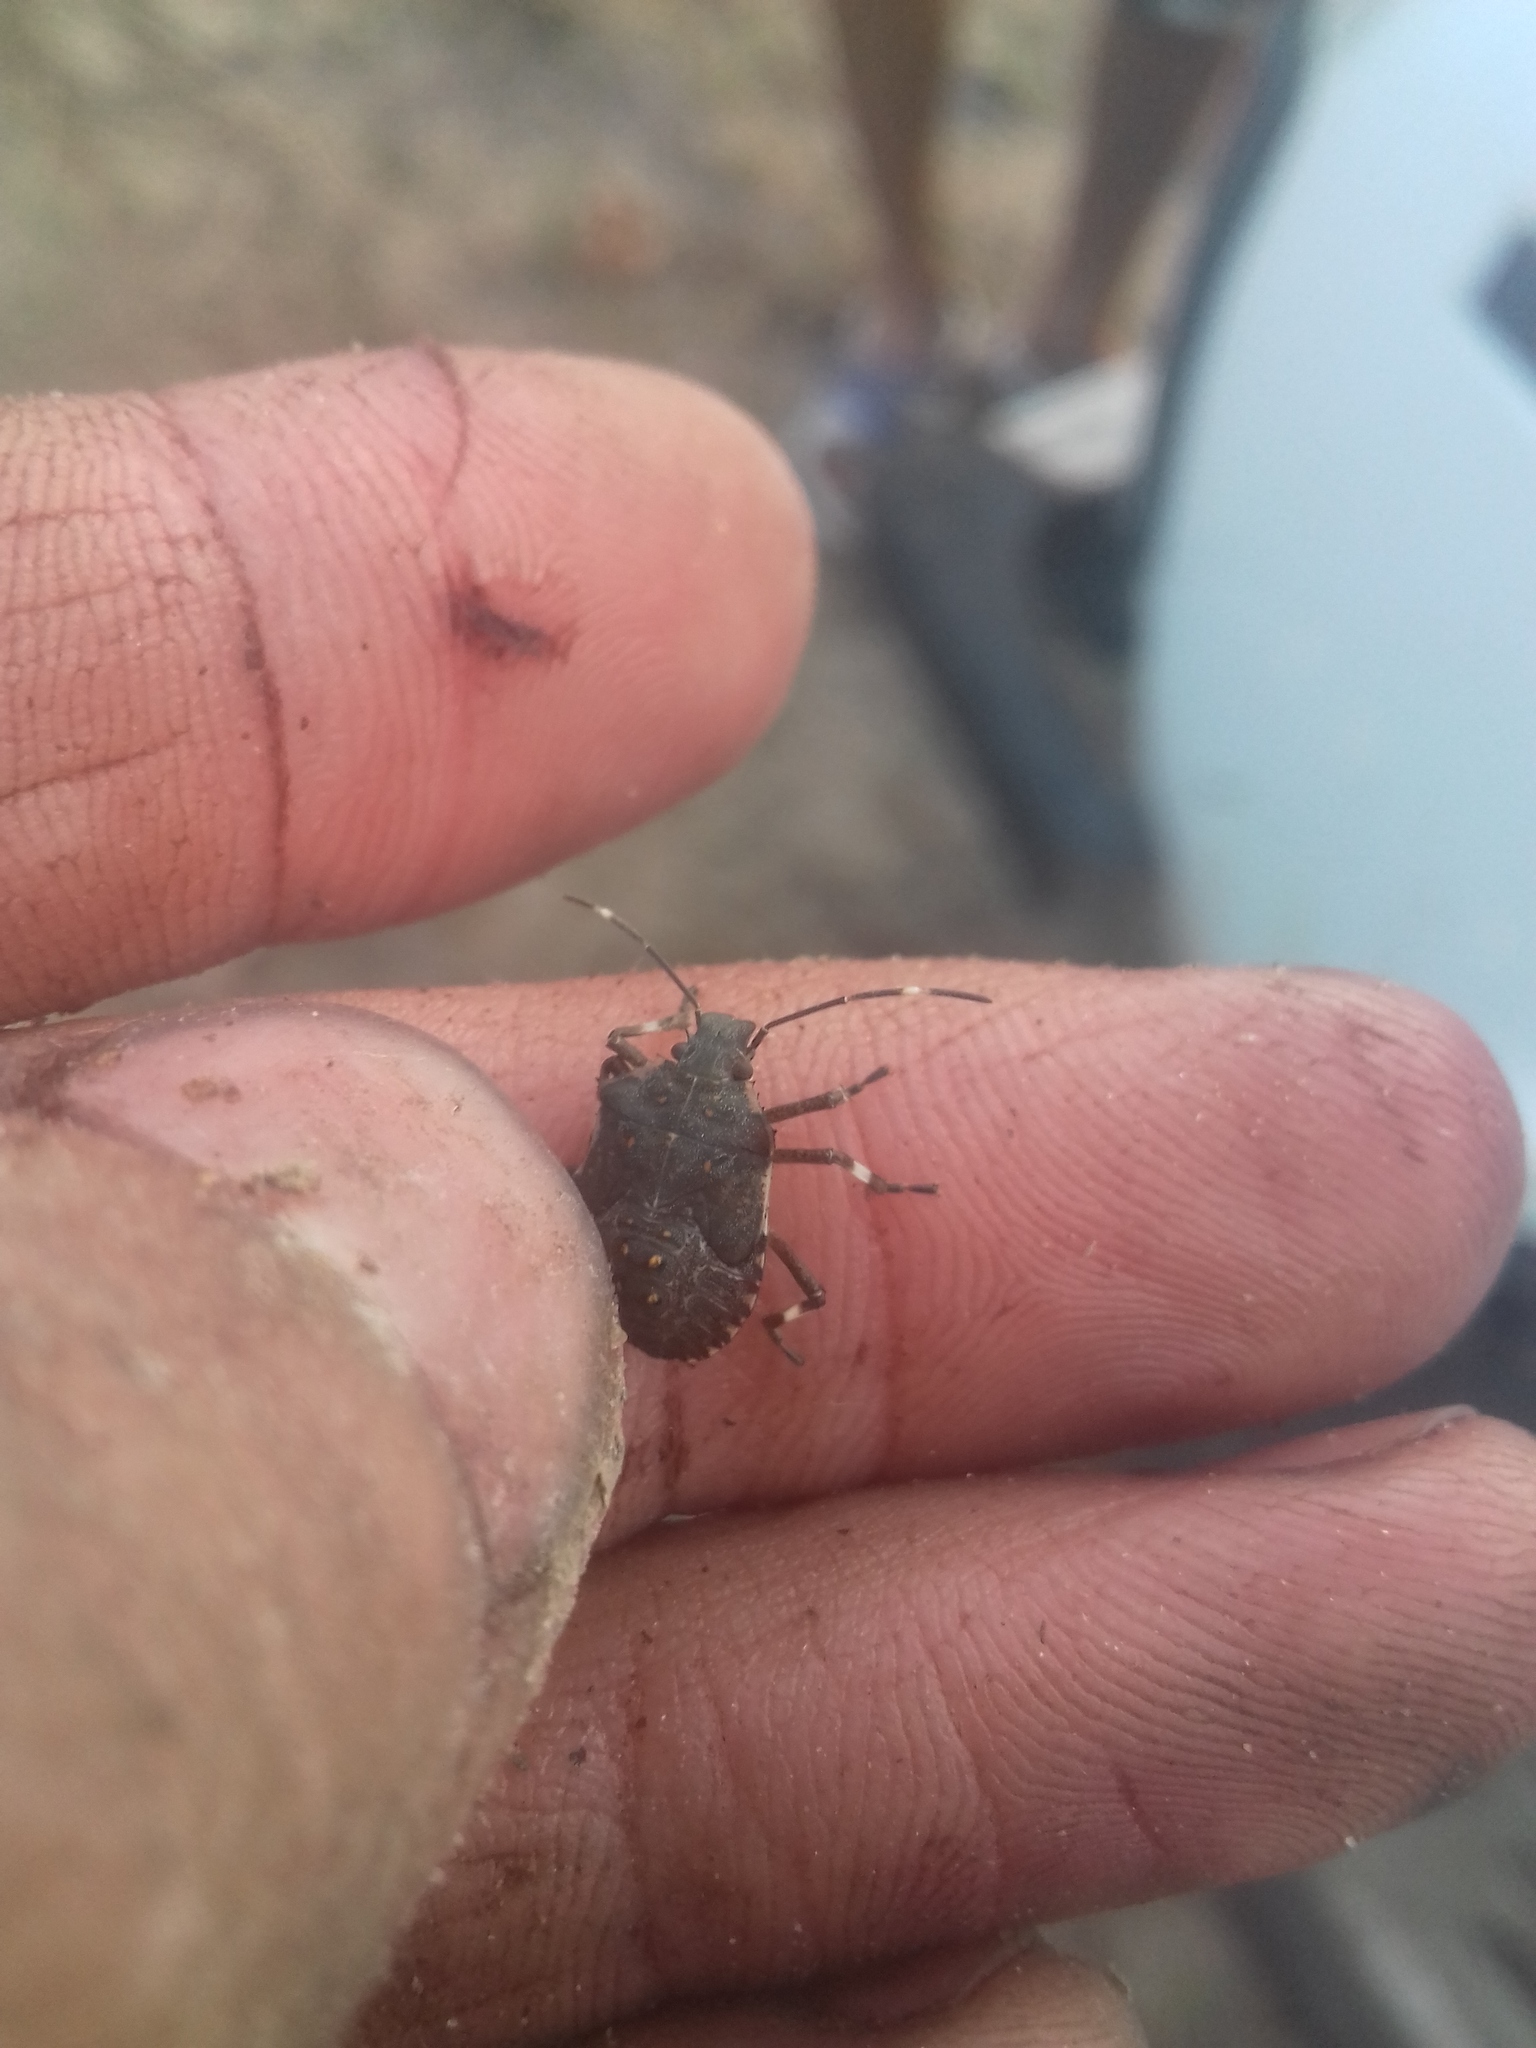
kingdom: Animalia
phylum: Arthropoda
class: Insecta
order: Hemiptera
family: Pentatomidae
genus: Halyomorpha
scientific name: Halyomorpha halys
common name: Brown marmorated stink bug
